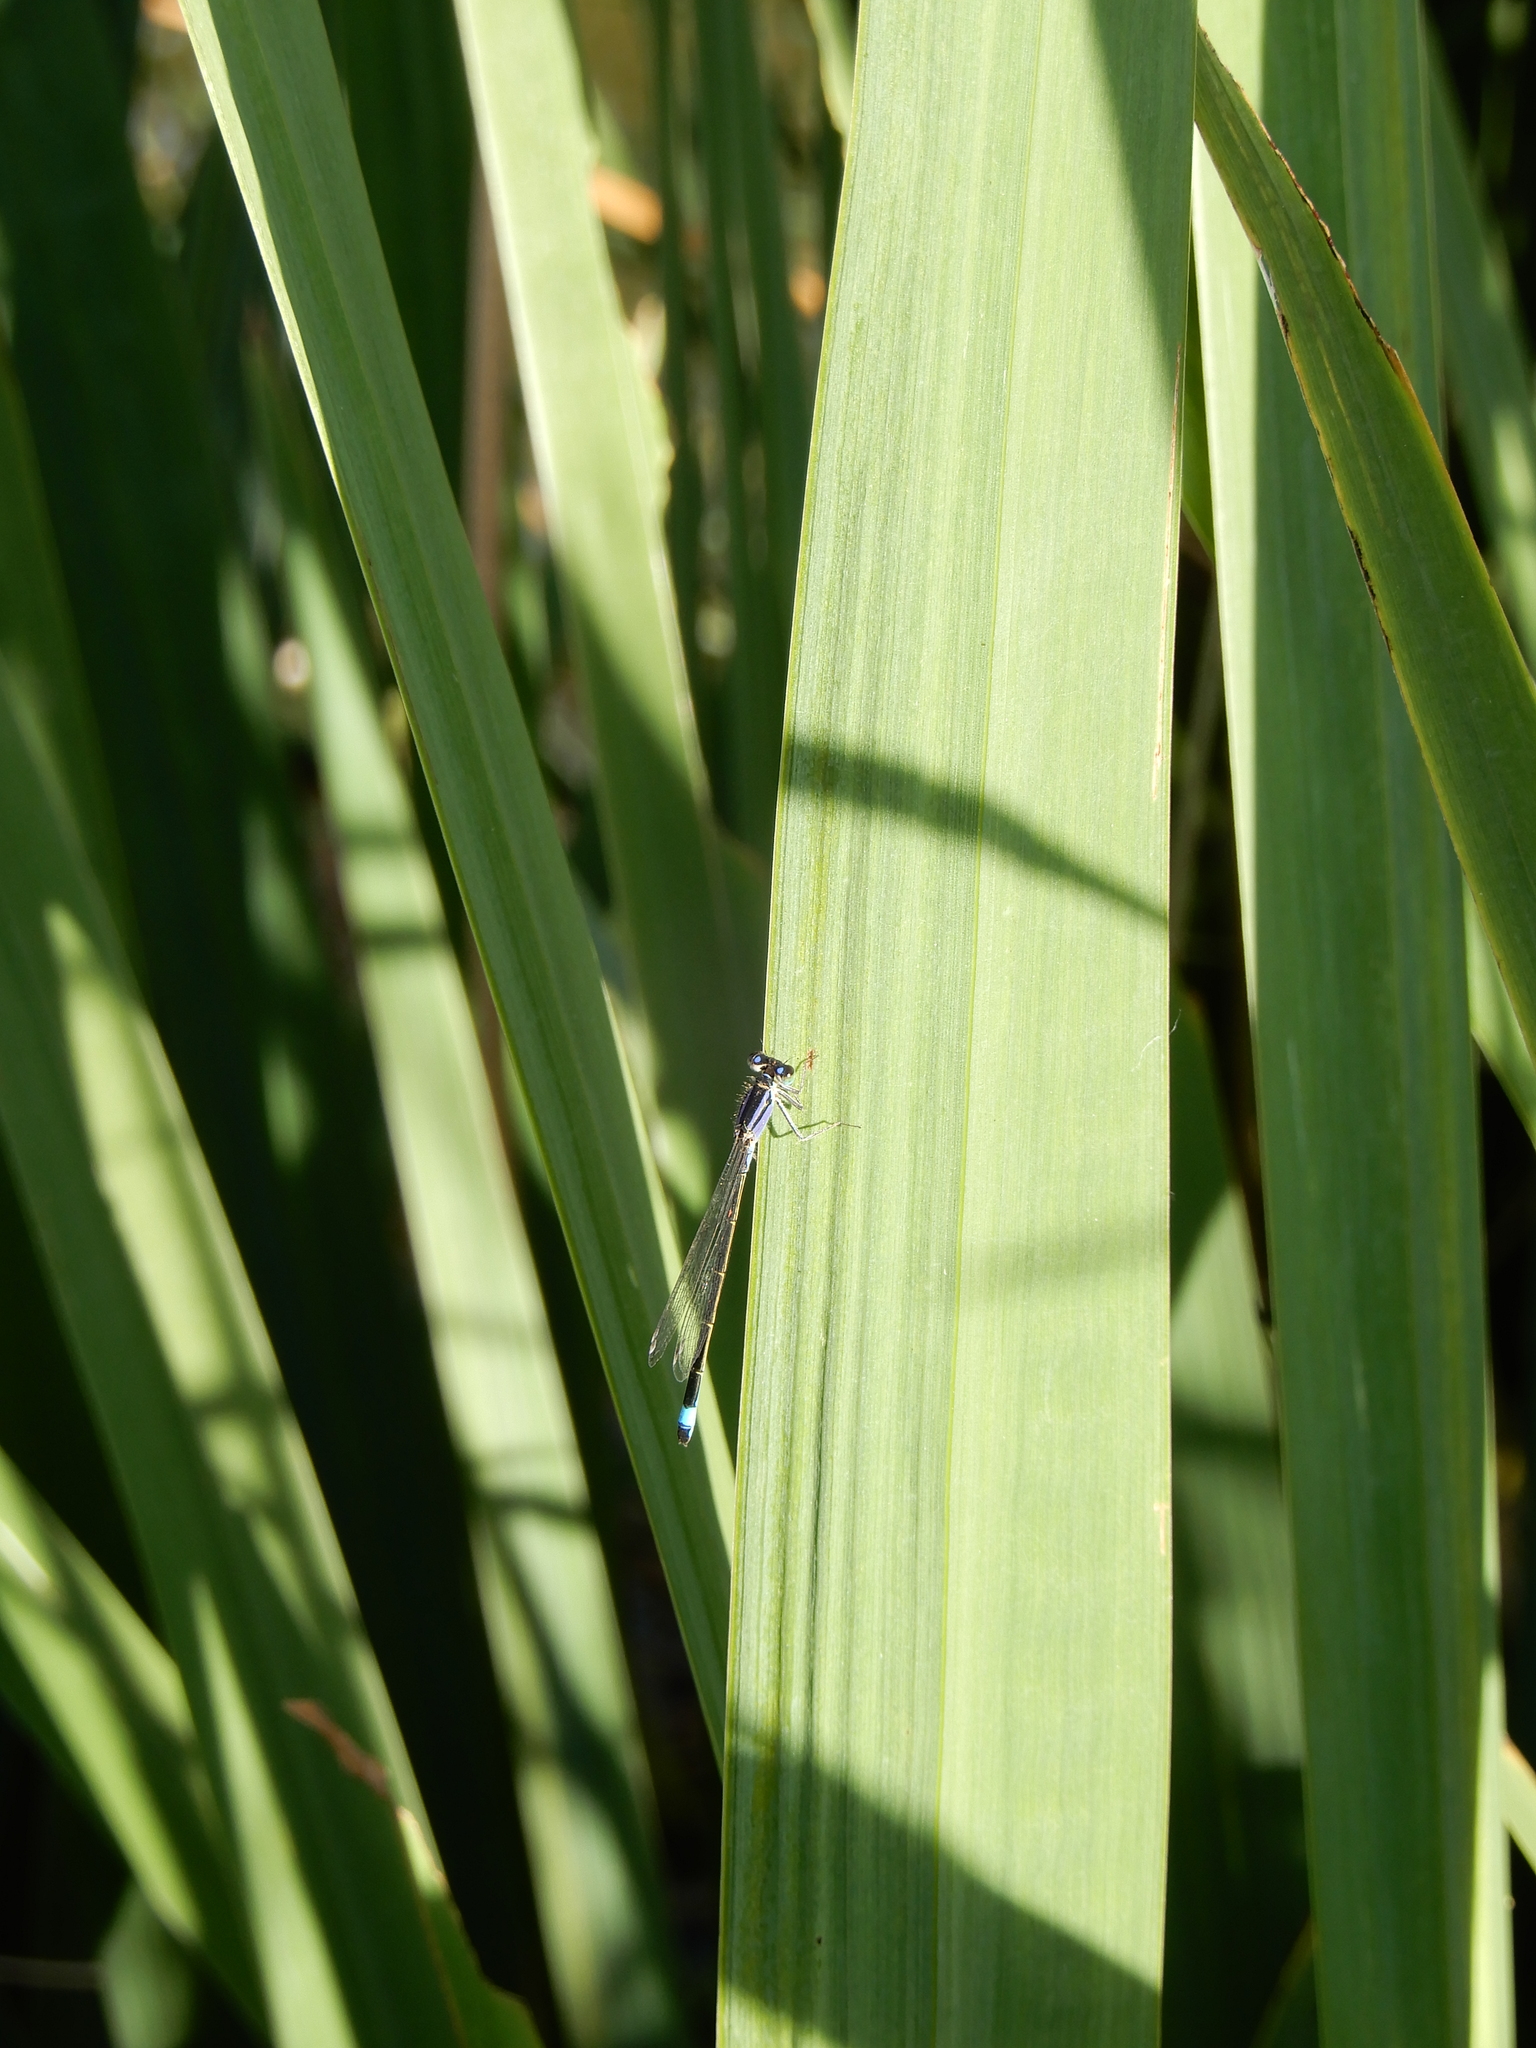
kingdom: Animalia
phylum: Arthropoda
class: Insecta
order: Odonata
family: Coenagrionidae
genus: Ischnura
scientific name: Ischnura elegans
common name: Blue-tailed damselfly
